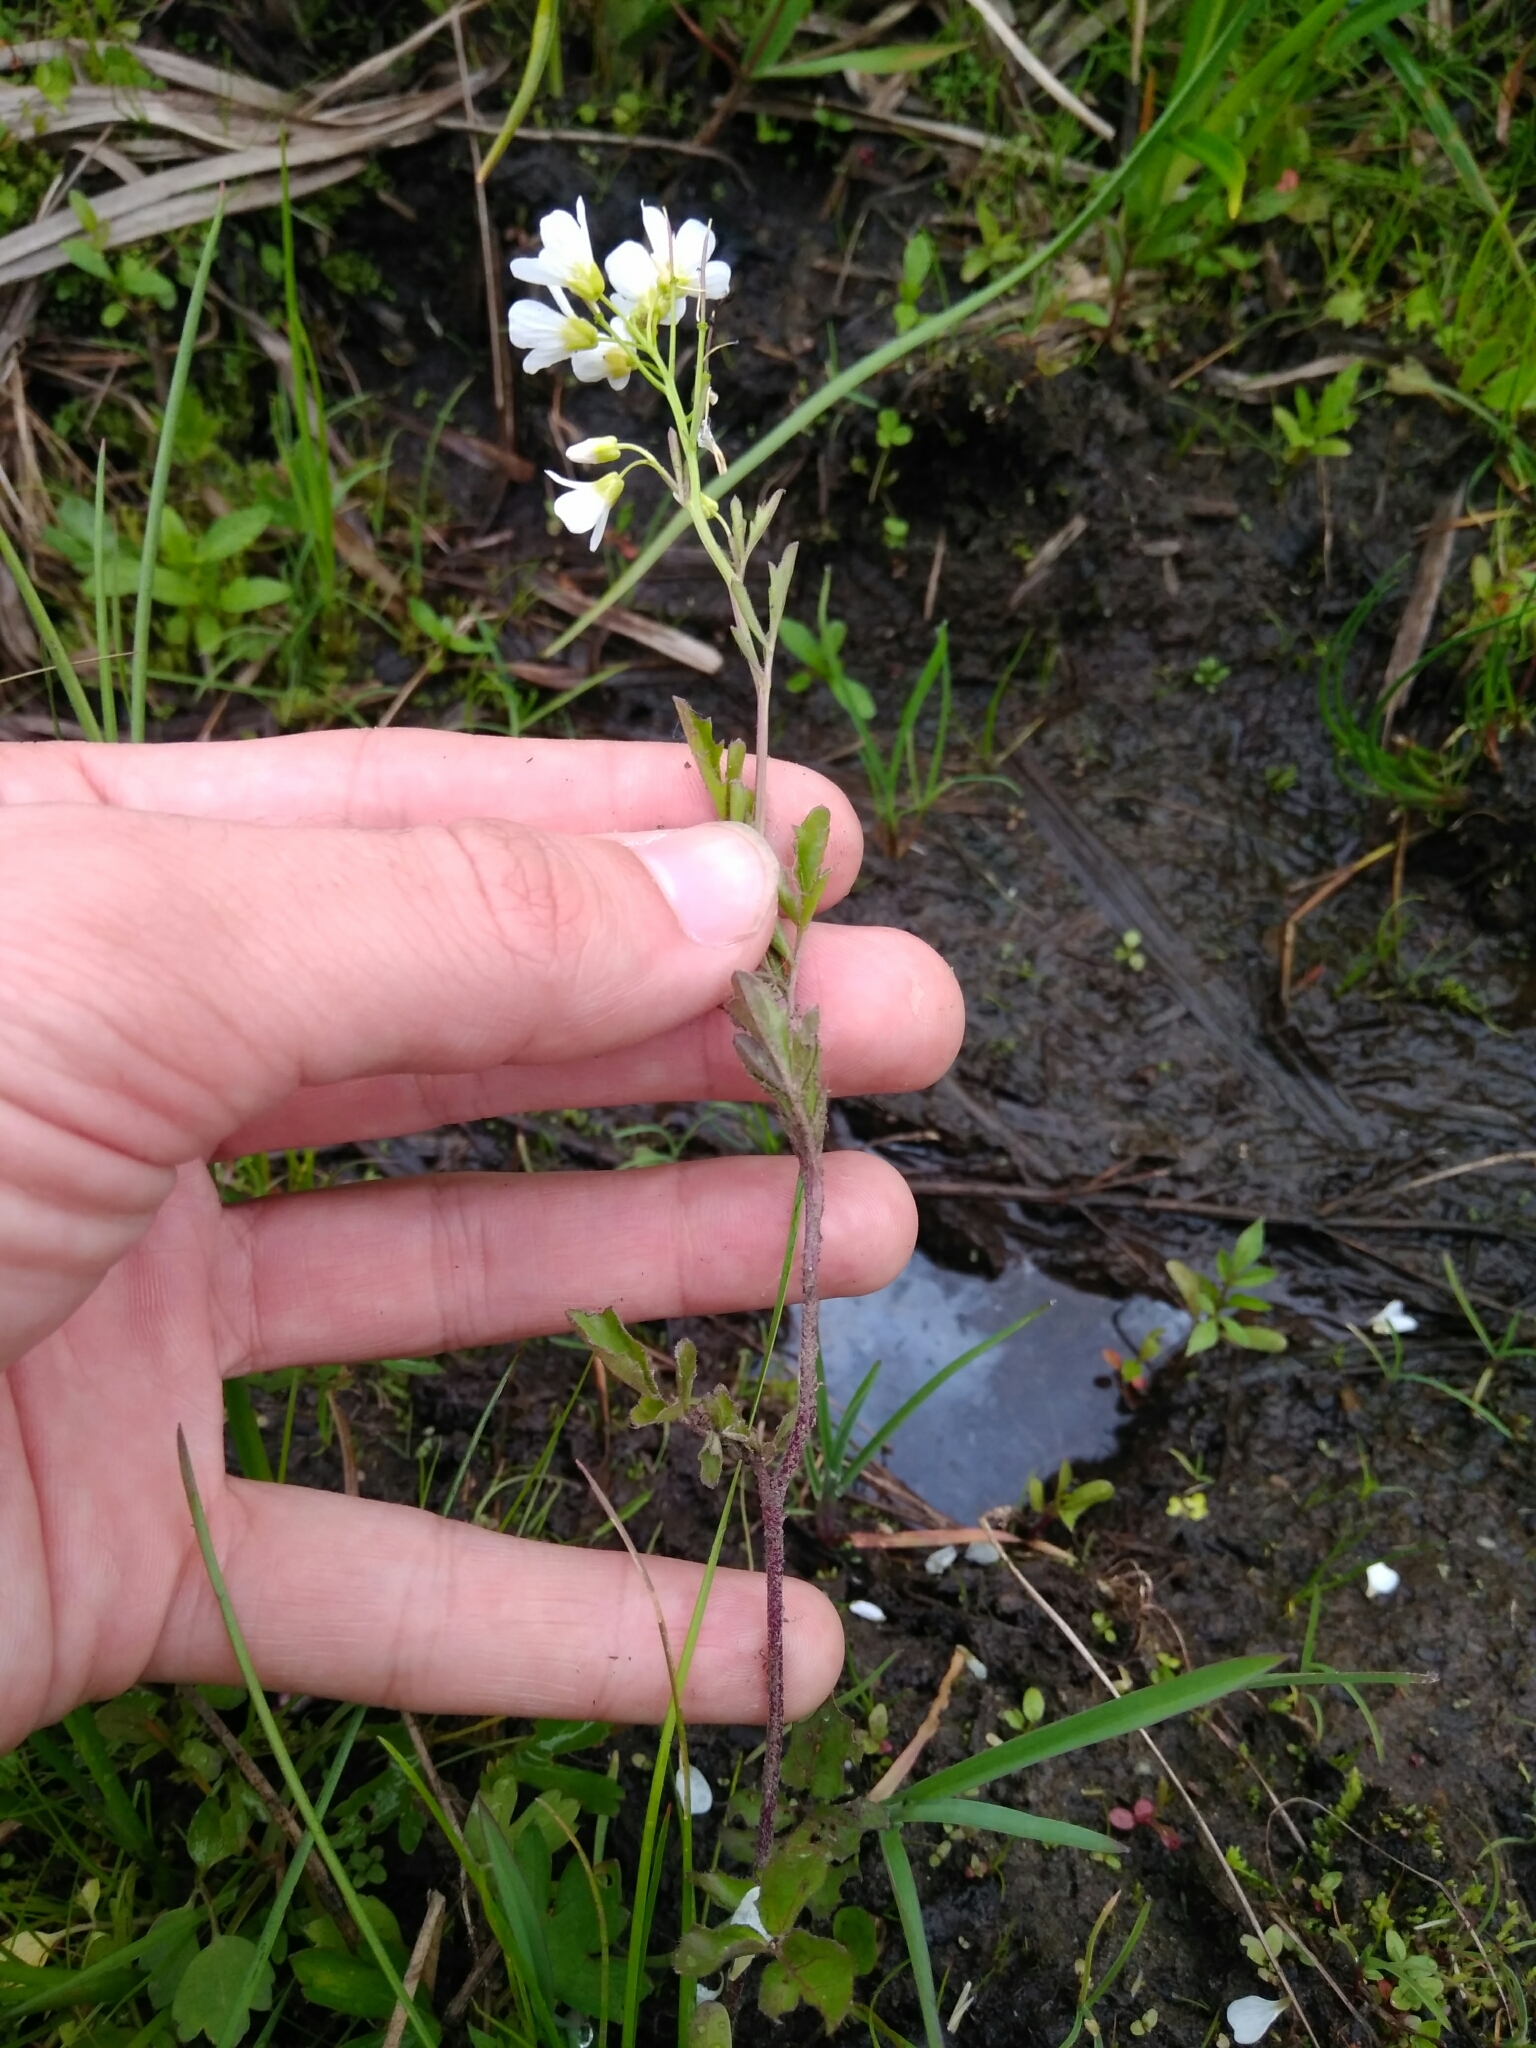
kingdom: Plantae
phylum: Tracheophyta
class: Magnoliopsida
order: Brassicales
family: Brassicaceae
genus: Cardamine
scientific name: Cardamine dentata
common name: Toothed bittercress
